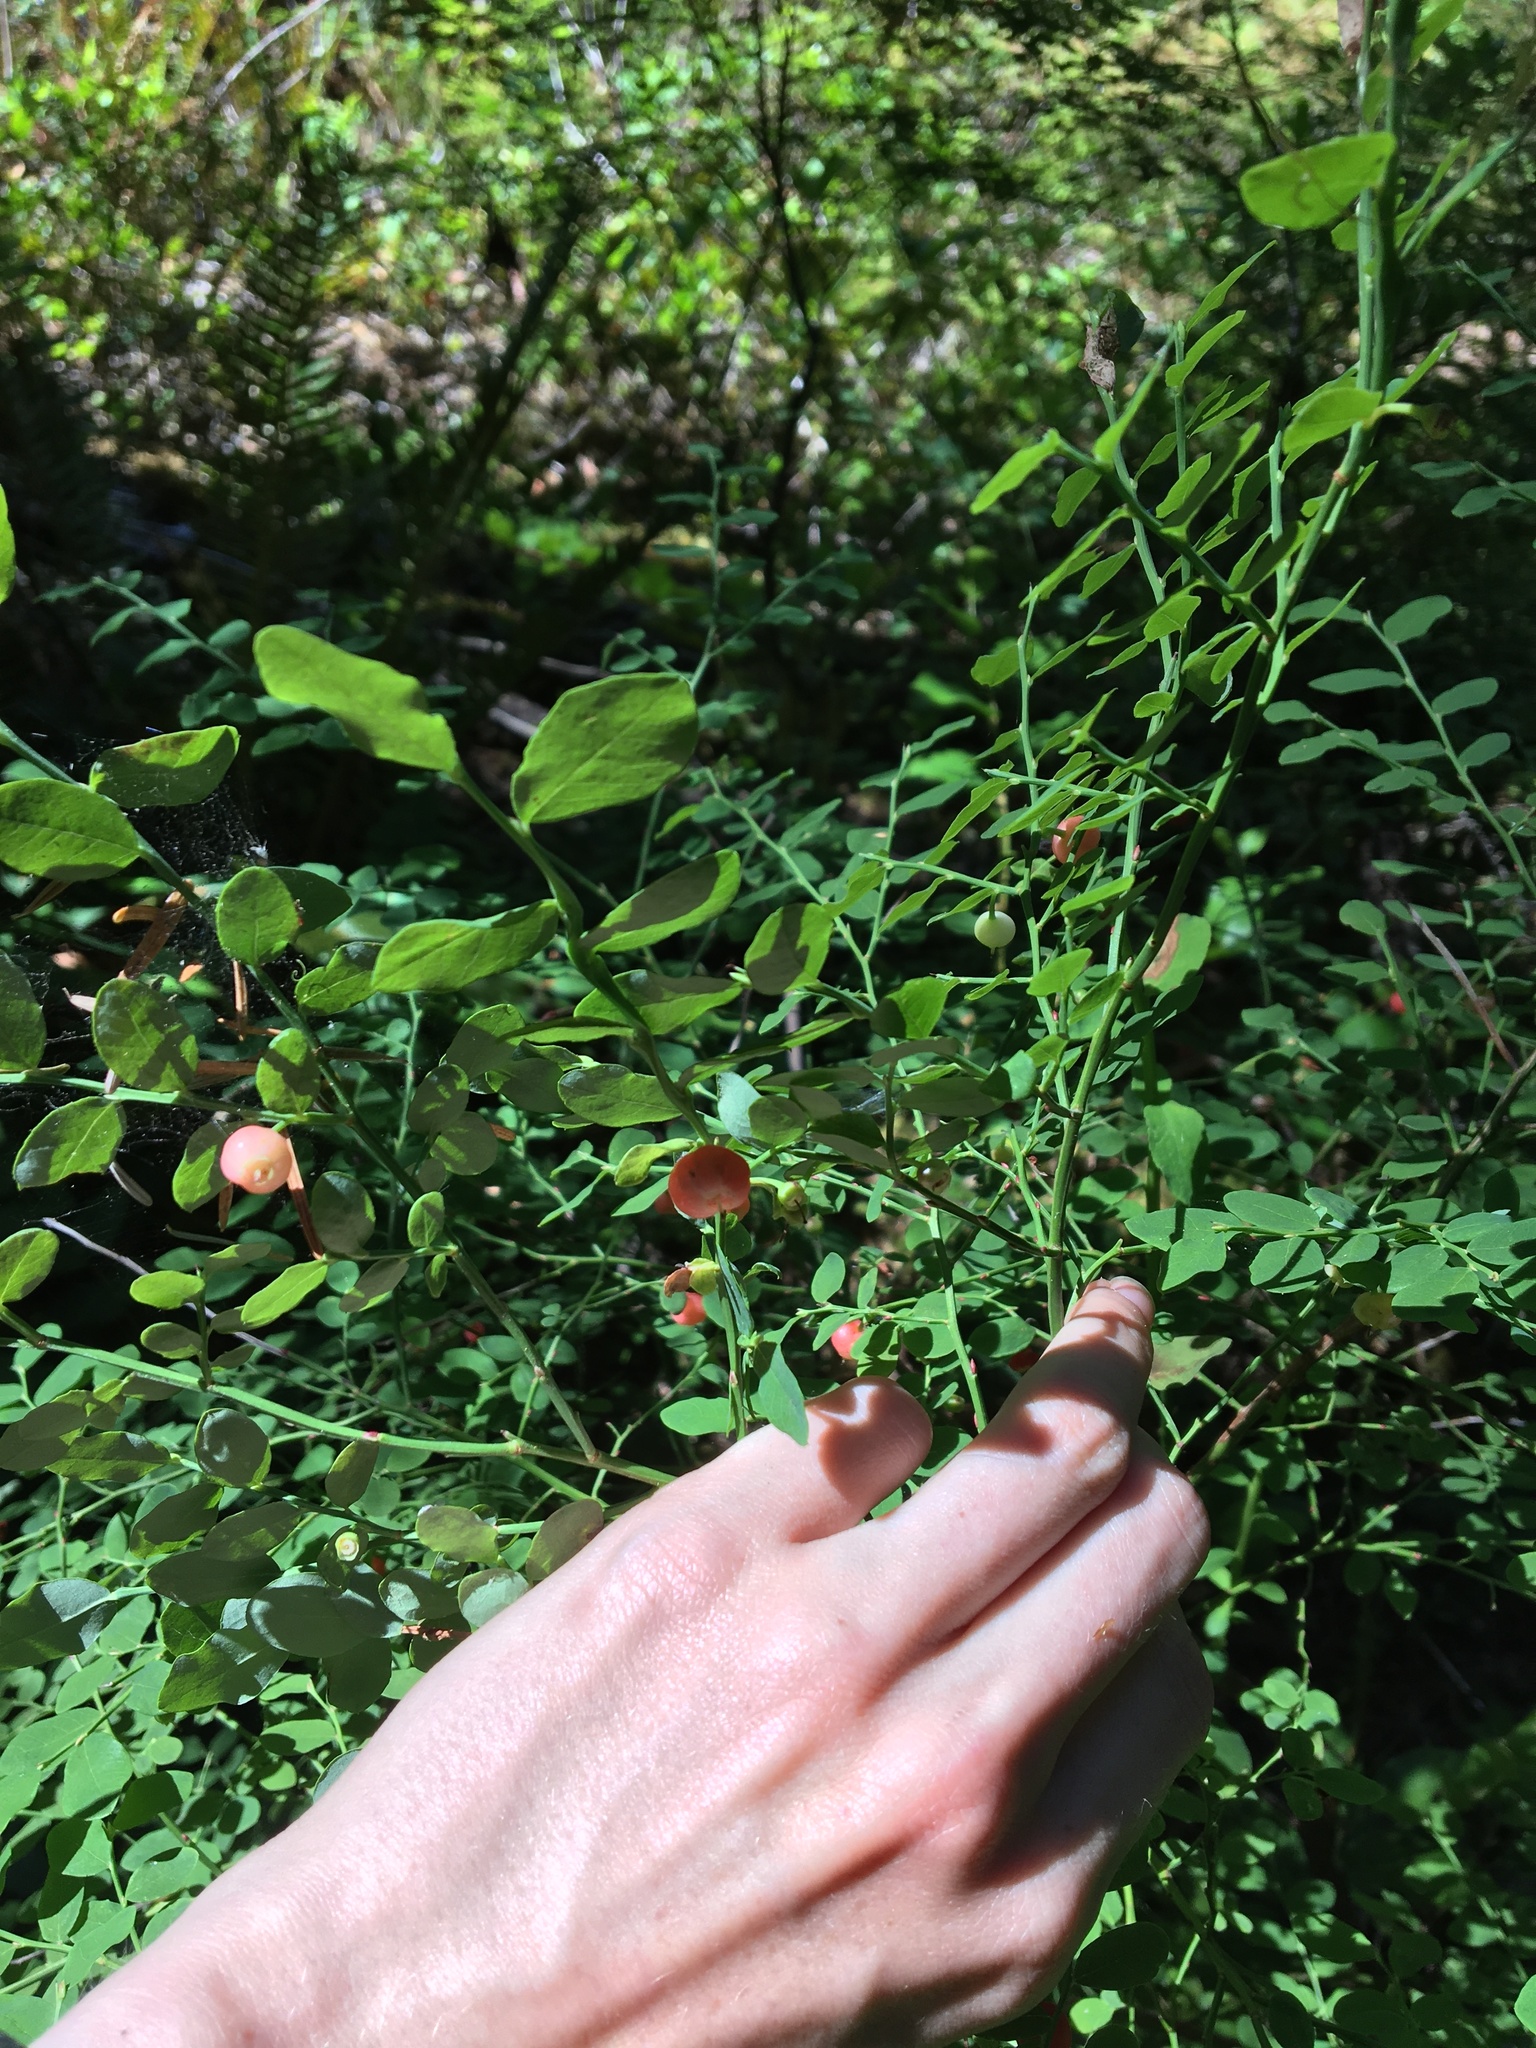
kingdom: Plantae
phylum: Tracheophyta
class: Magnoliopsida
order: Ericales
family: Ericaceae
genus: Vaccinium
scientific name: Vaccinium parvifolium
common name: Red-huckleberry
